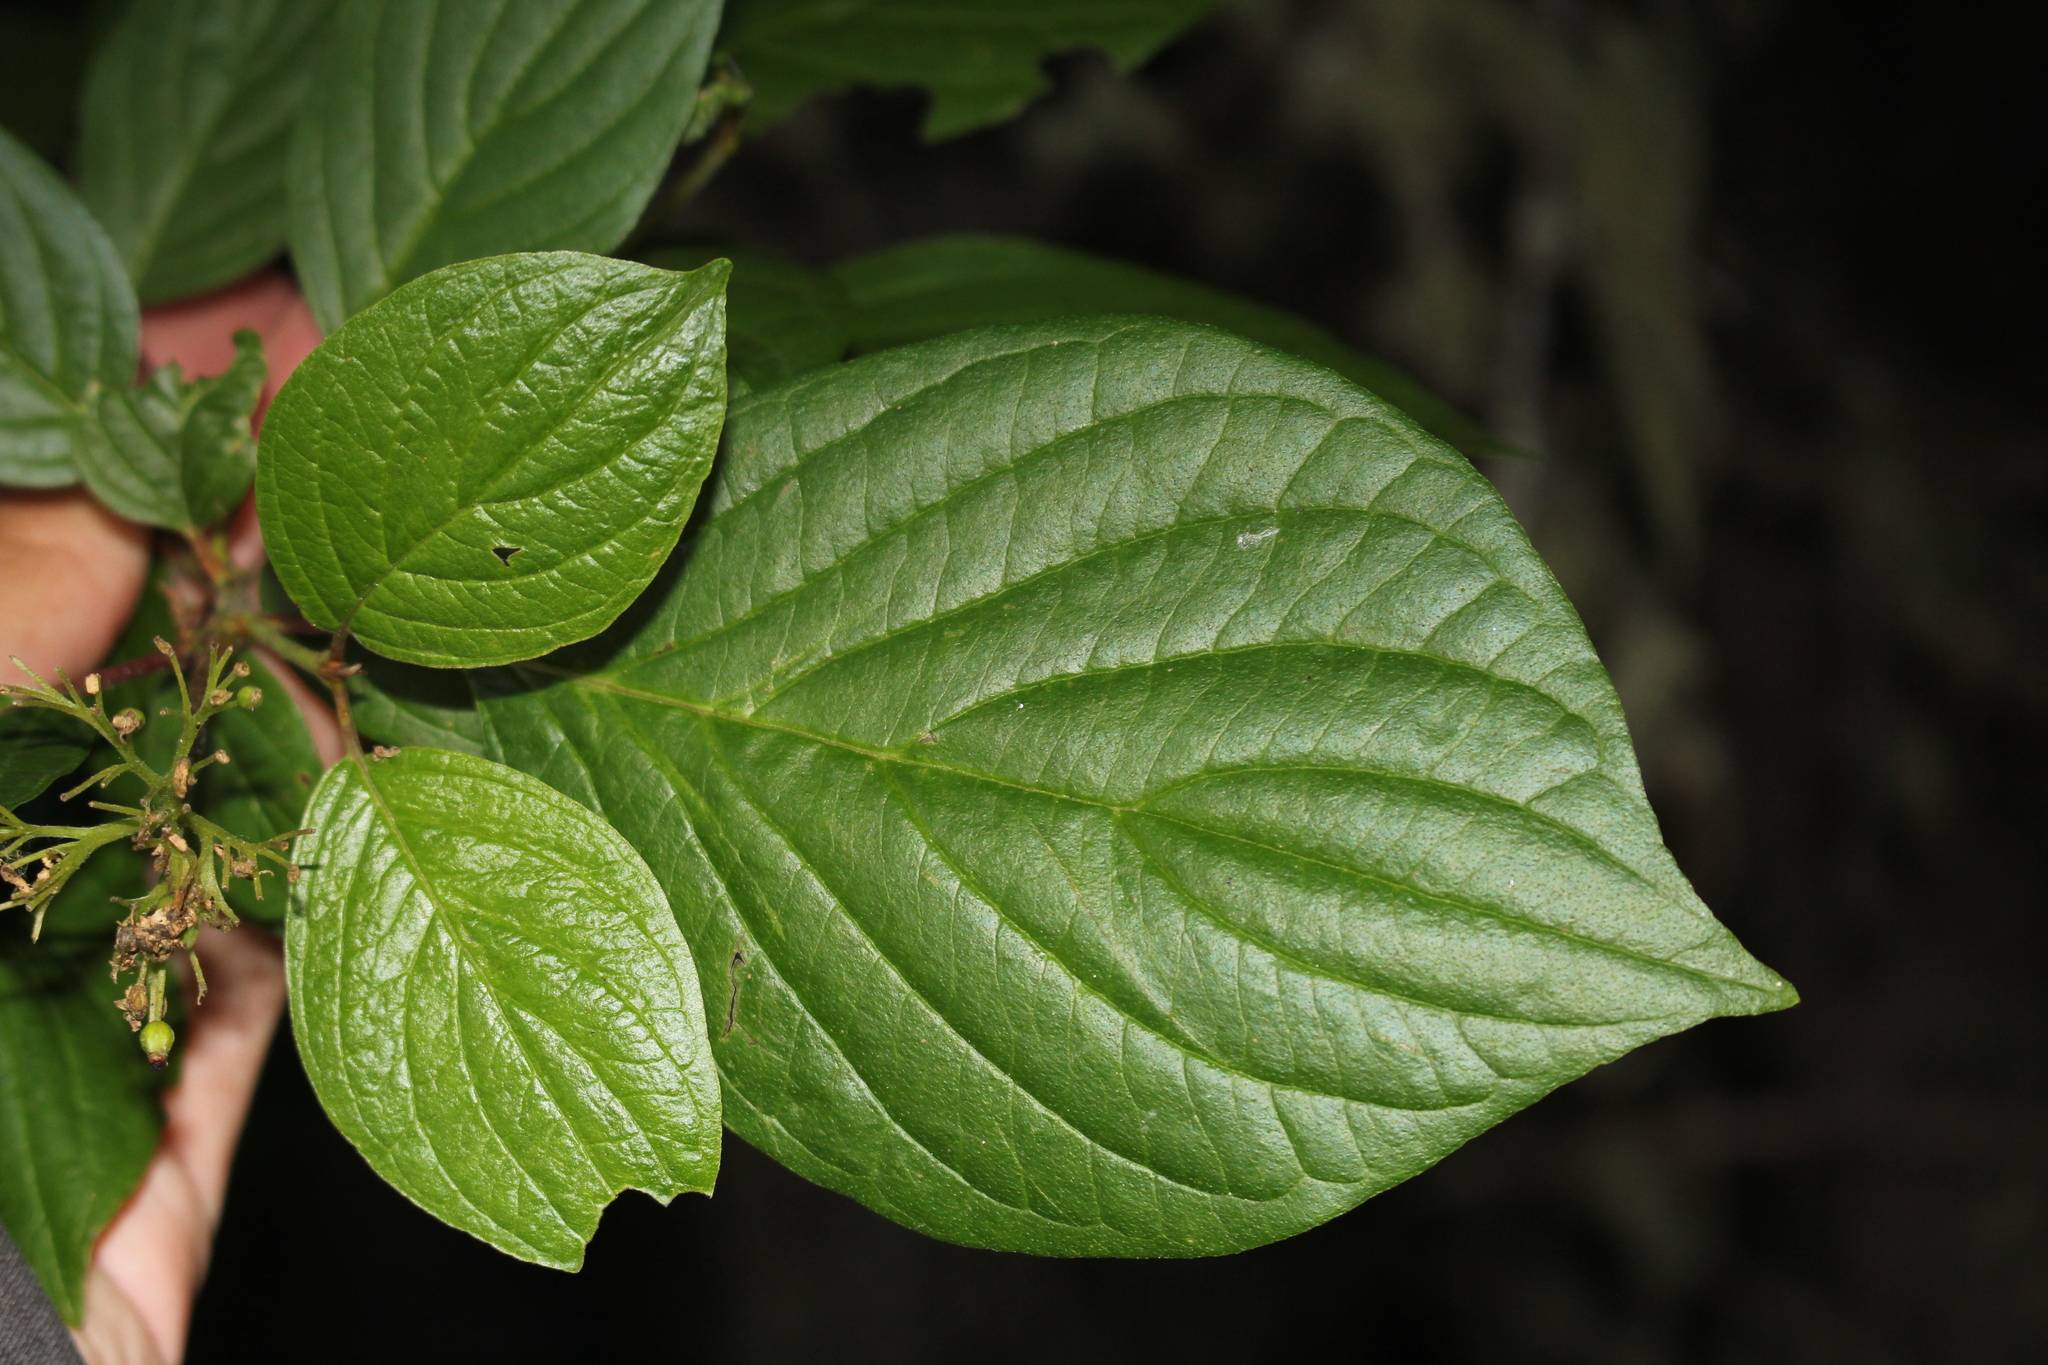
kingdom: Plantae
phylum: Tracheophyta
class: Magnoliopsida
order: Cornales
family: Cornaceae
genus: Cornus
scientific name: Cornus sericea
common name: Red-osier dogwood
